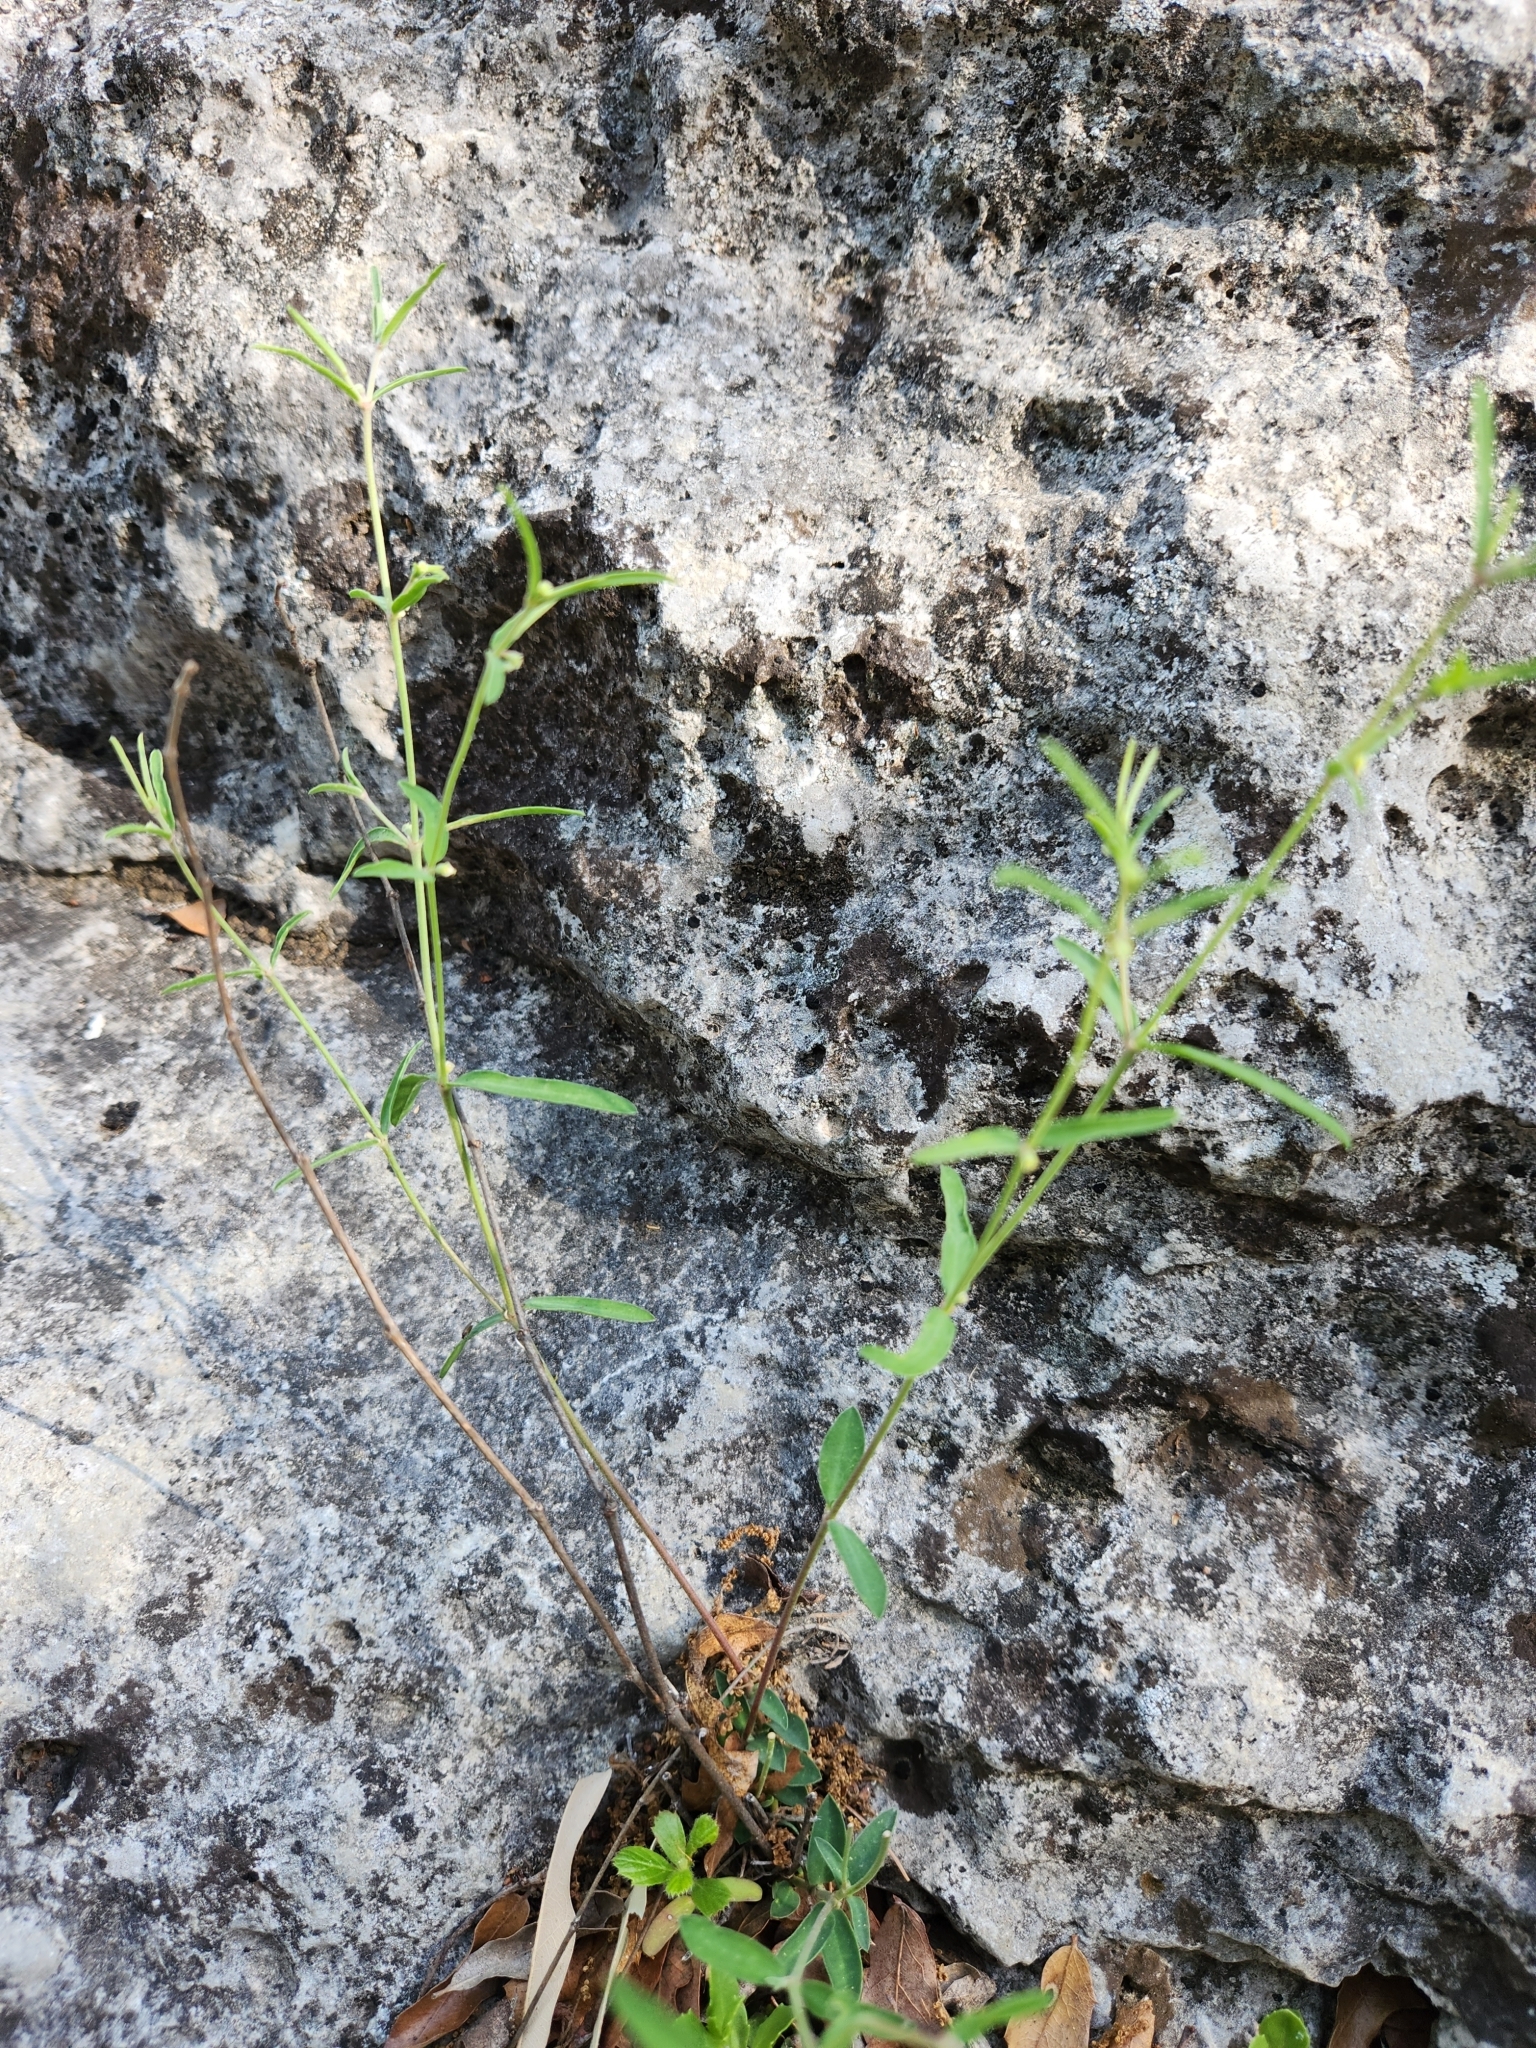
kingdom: Plantae
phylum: Tracheophyta
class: Magnoliopsida
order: Malpighiales
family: Euphorbiaceae
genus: Euphorbia
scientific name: Euphorbia angusta
